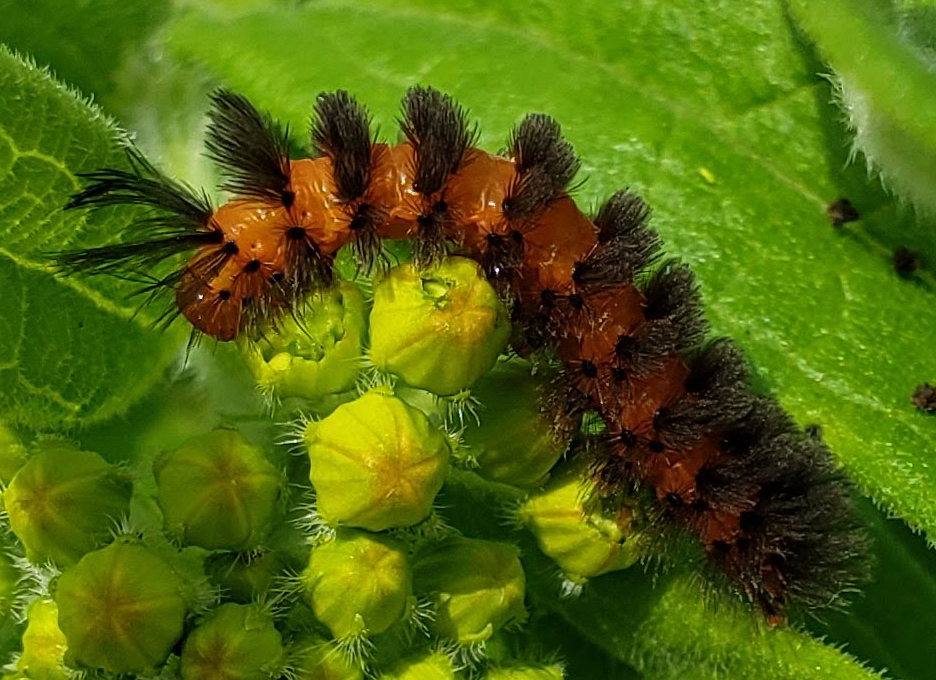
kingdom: Animalia
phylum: Arthropoda
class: Insecta
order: Lepidoptera
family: Erebidae
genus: Cycnia
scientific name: Cycnia collaris
